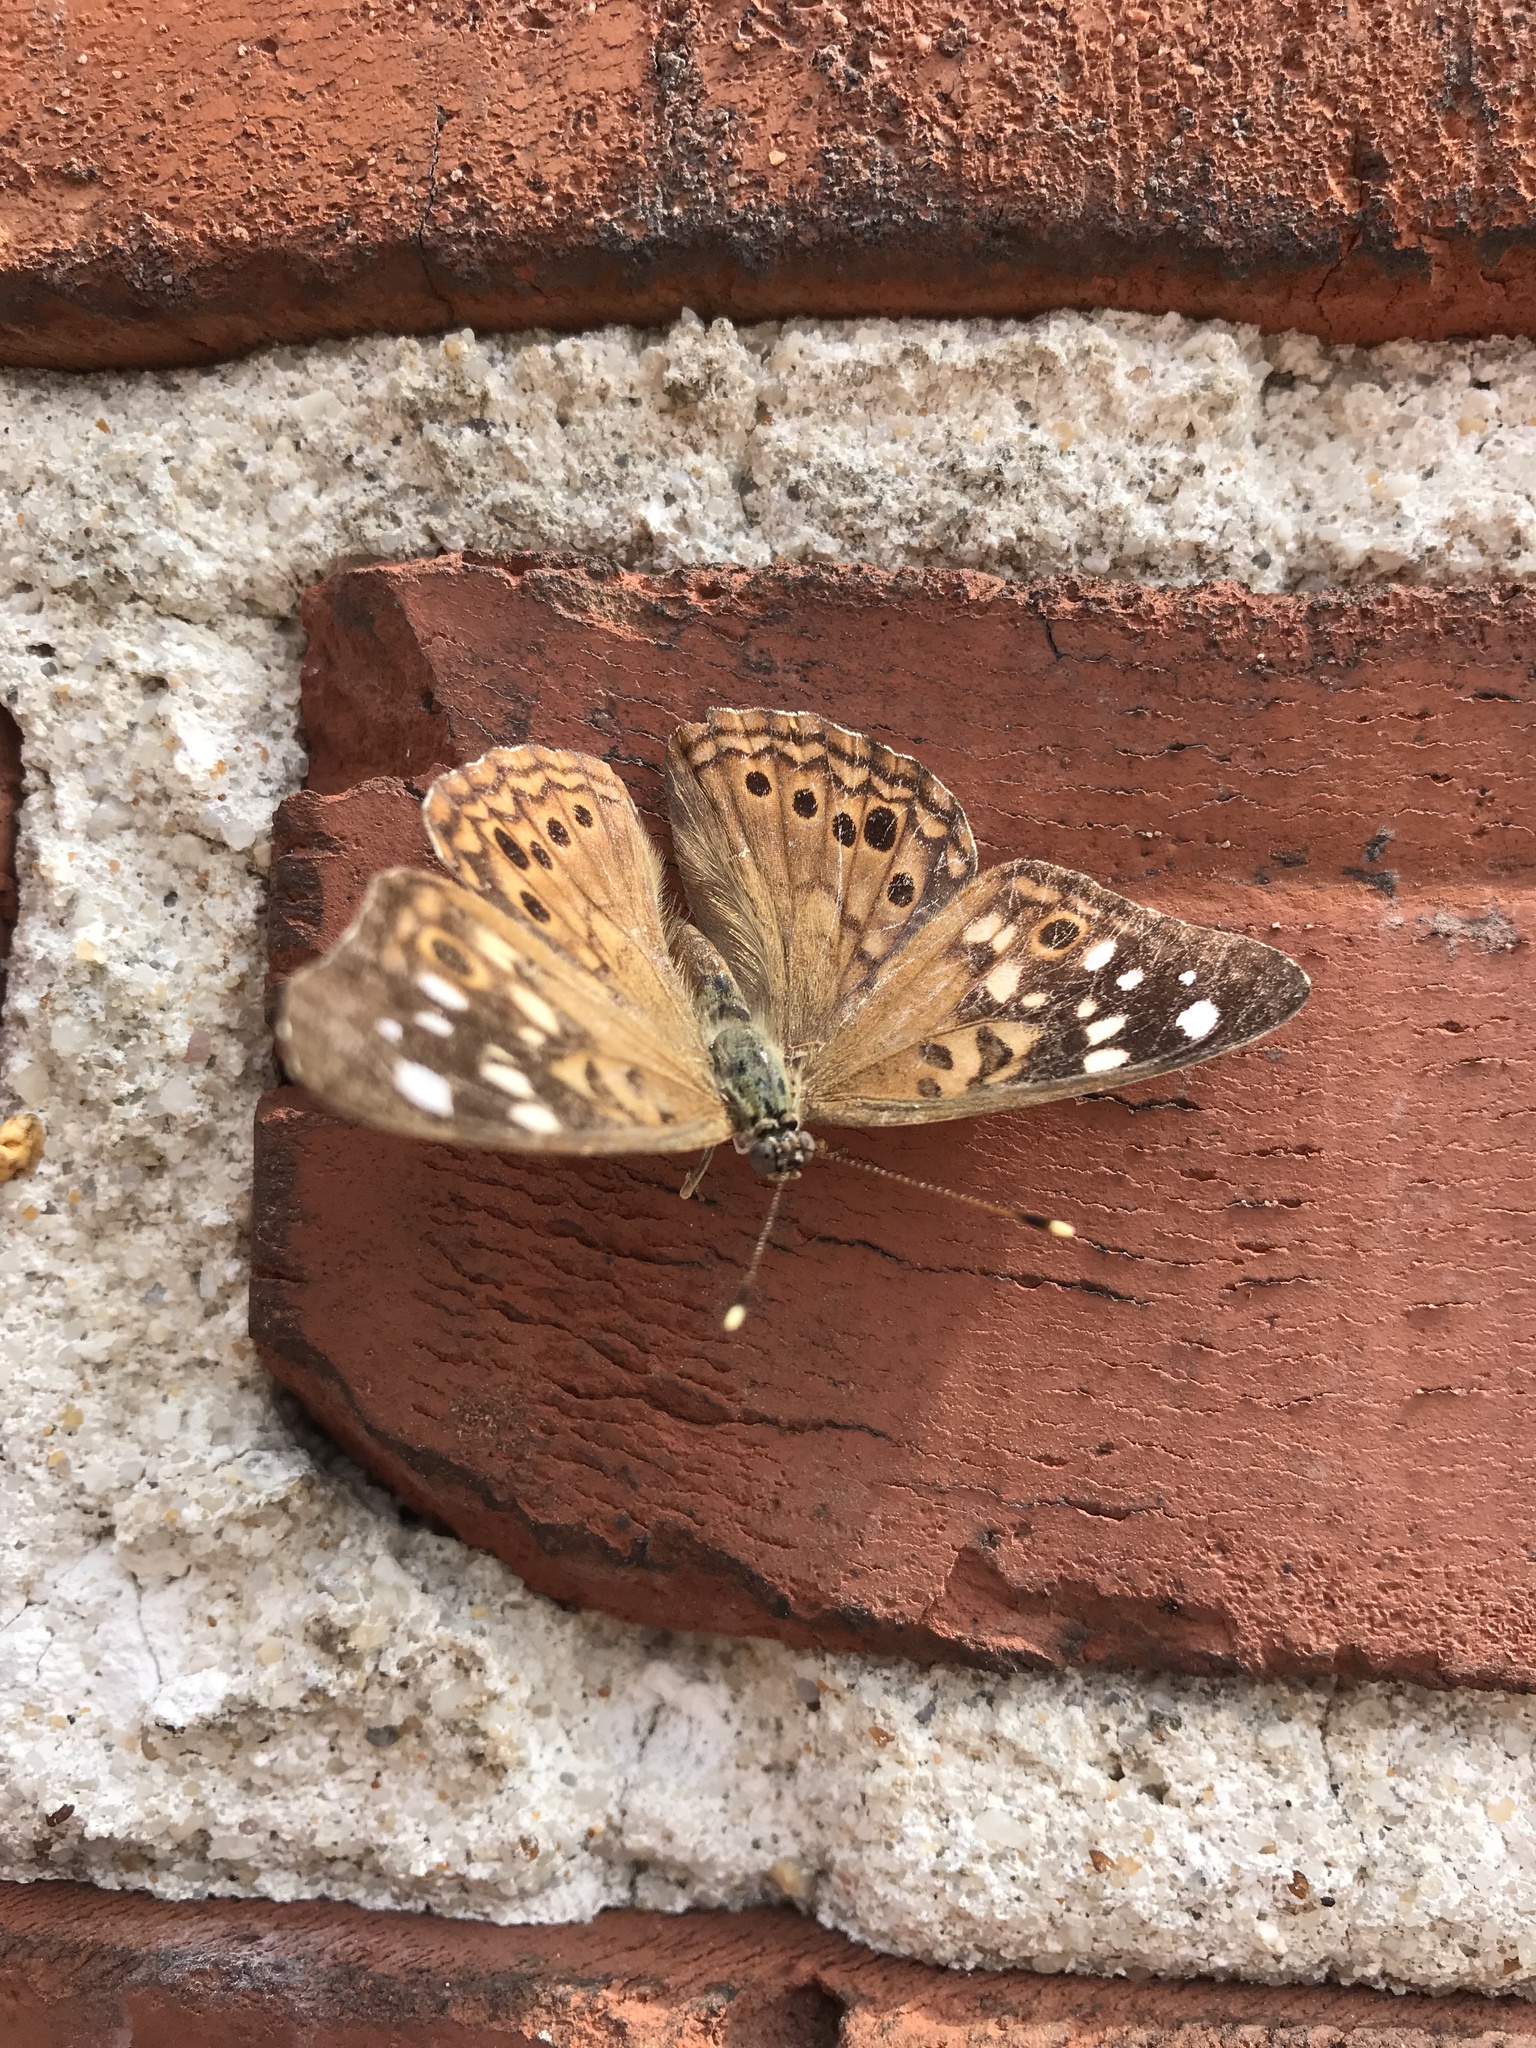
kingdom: Animalia
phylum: Arthropoda
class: Insecta
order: Lepidoptera
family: Nymphalidae
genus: Asterocampa
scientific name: Asterocampa celtis
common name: Hackberry emperor
